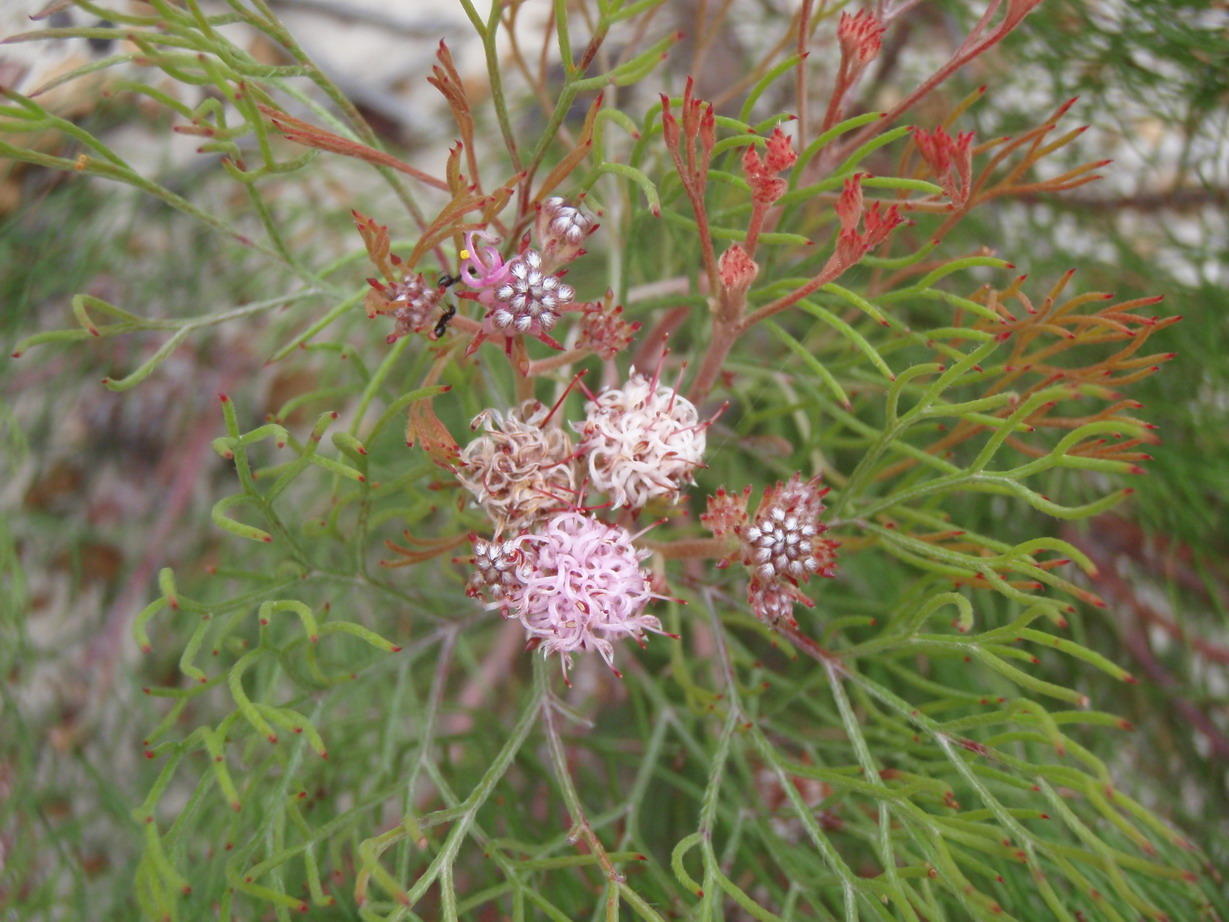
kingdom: Plantae
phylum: Tracheophyta
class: Magnoliopsida
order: Proteales
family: Proteaceae
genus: Serruria
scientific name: Serruria fasciflora
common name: Common pin spiderhead
